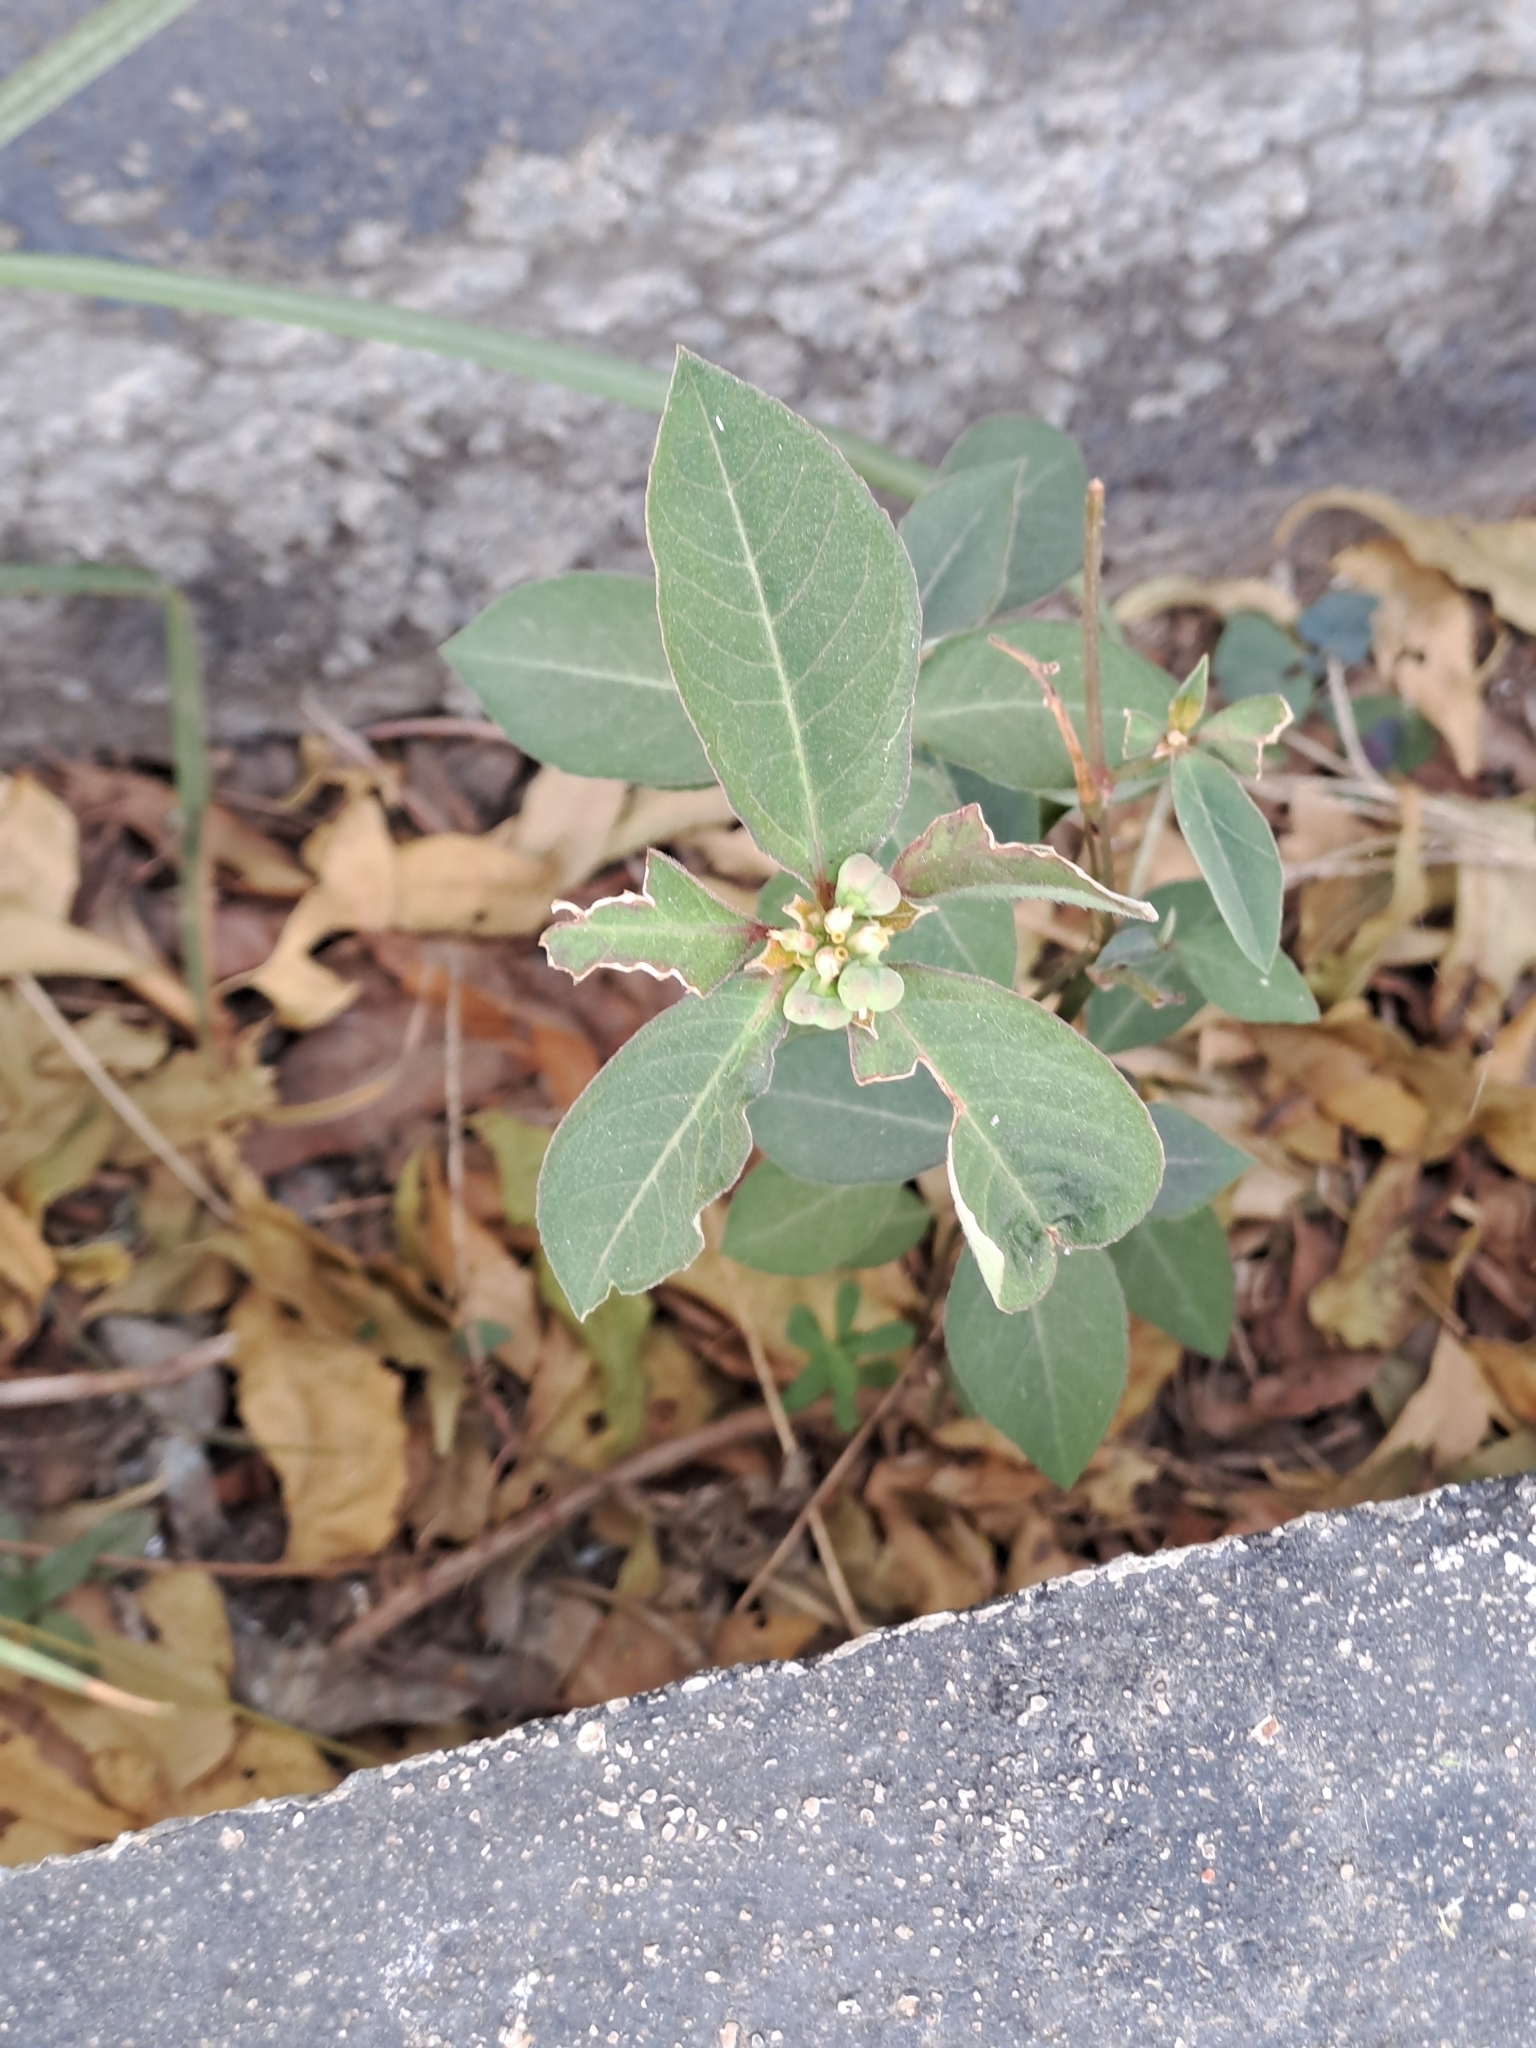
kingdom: Plantae
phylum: Tracheophyta
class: Magnoliopsida
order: Malpighiales
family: Euphorbiaceae
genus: Euphorbia
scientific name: Euphorbia heterophylla
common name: Mexican fireplant
